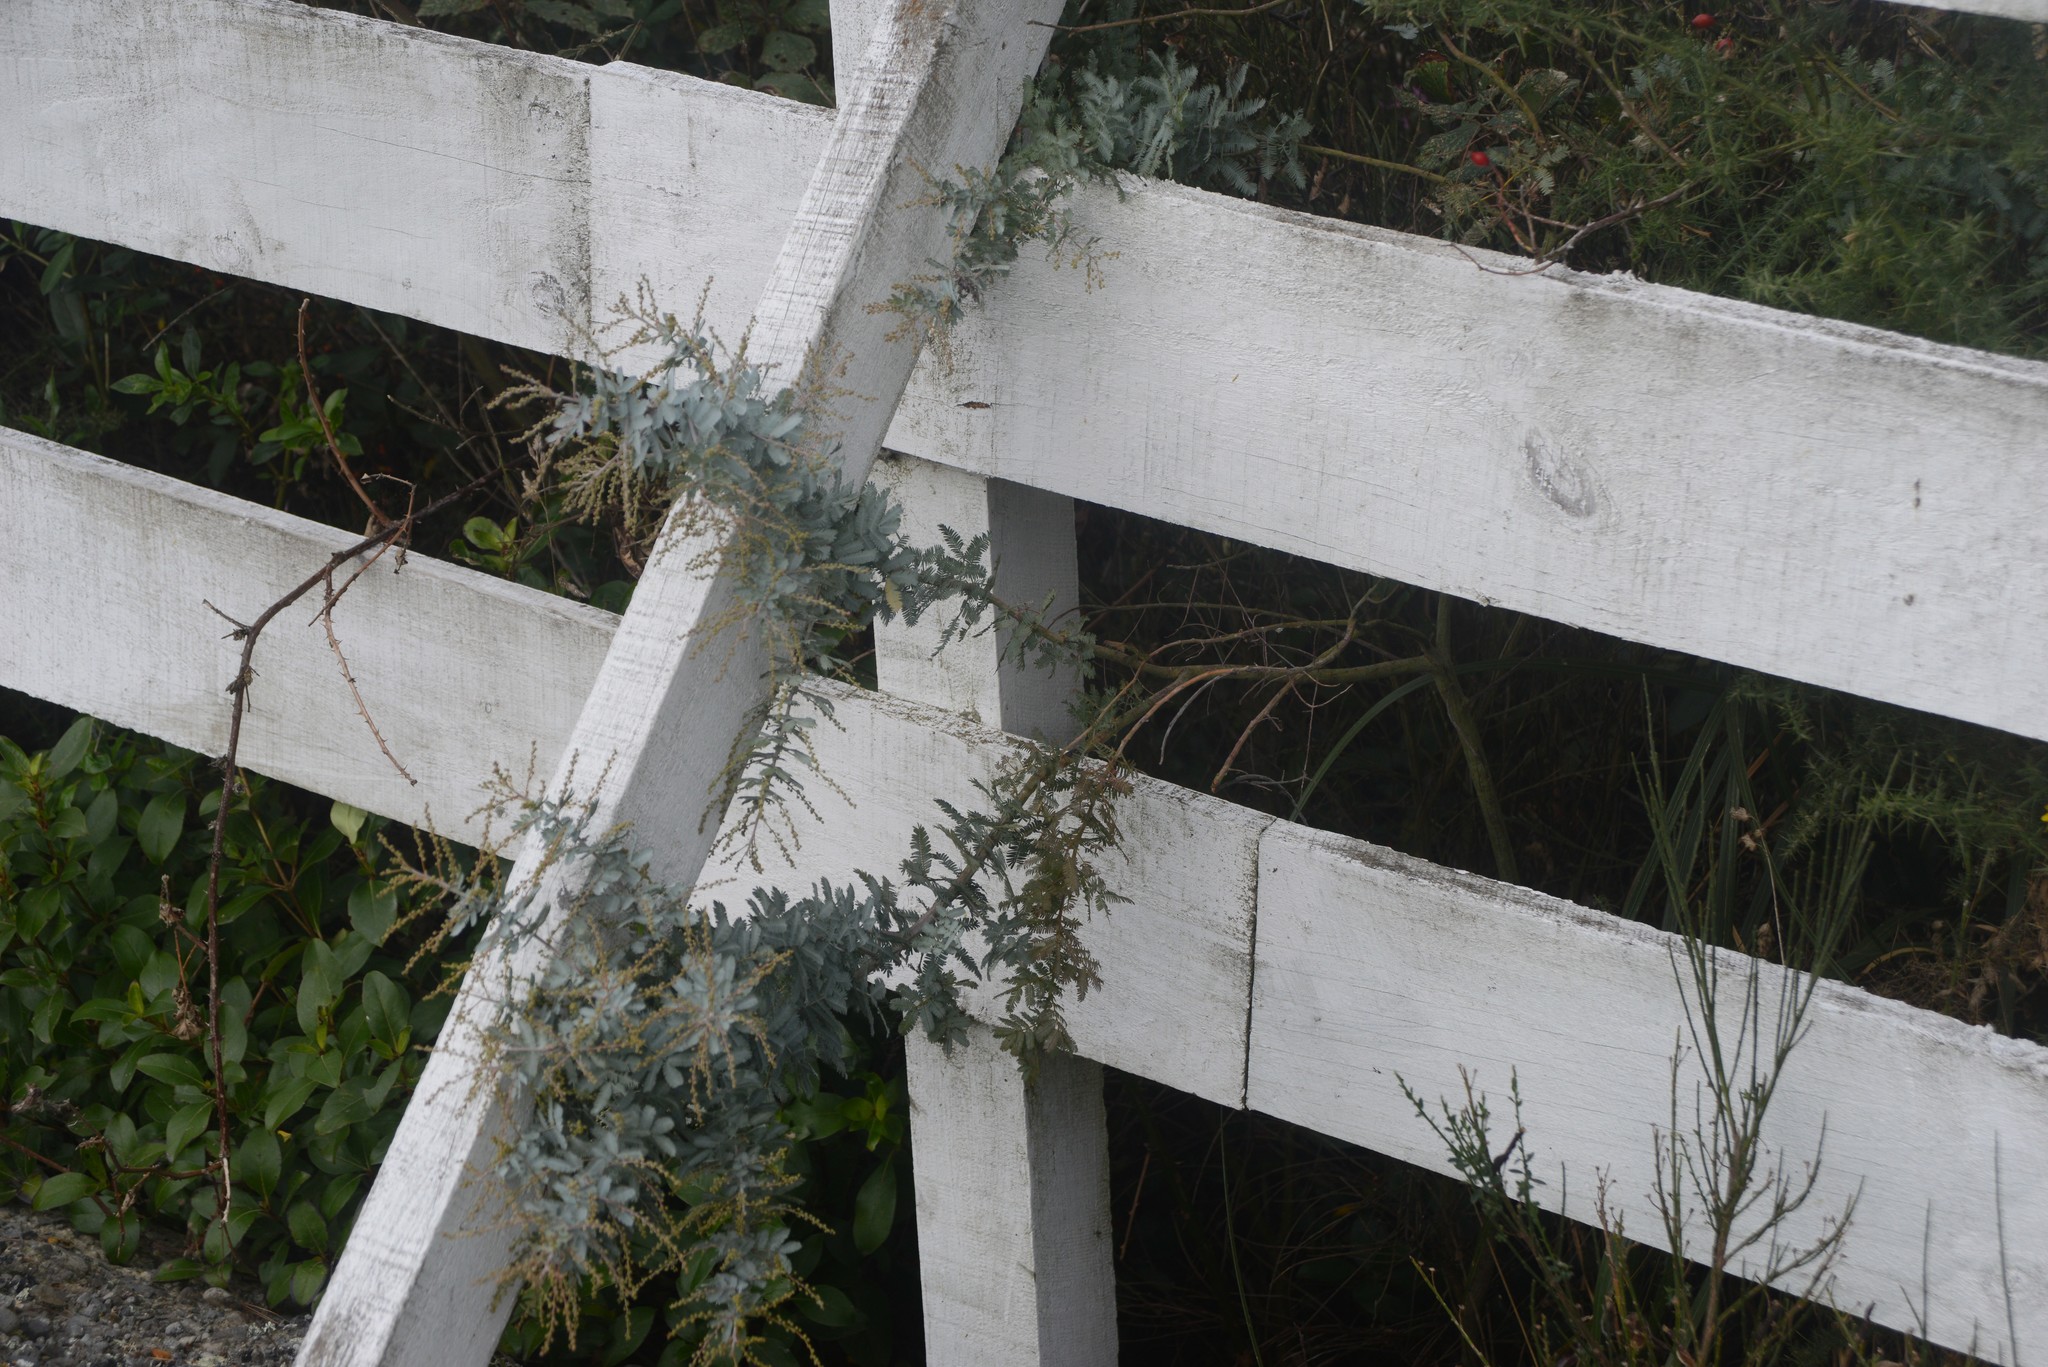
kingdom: Plantae
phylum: Tracheophyta
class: Magnoliopsida
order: Fabales
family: Fabaceae
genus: Acacia
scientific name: Acacia baileyana
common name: Cootamundra wattle
